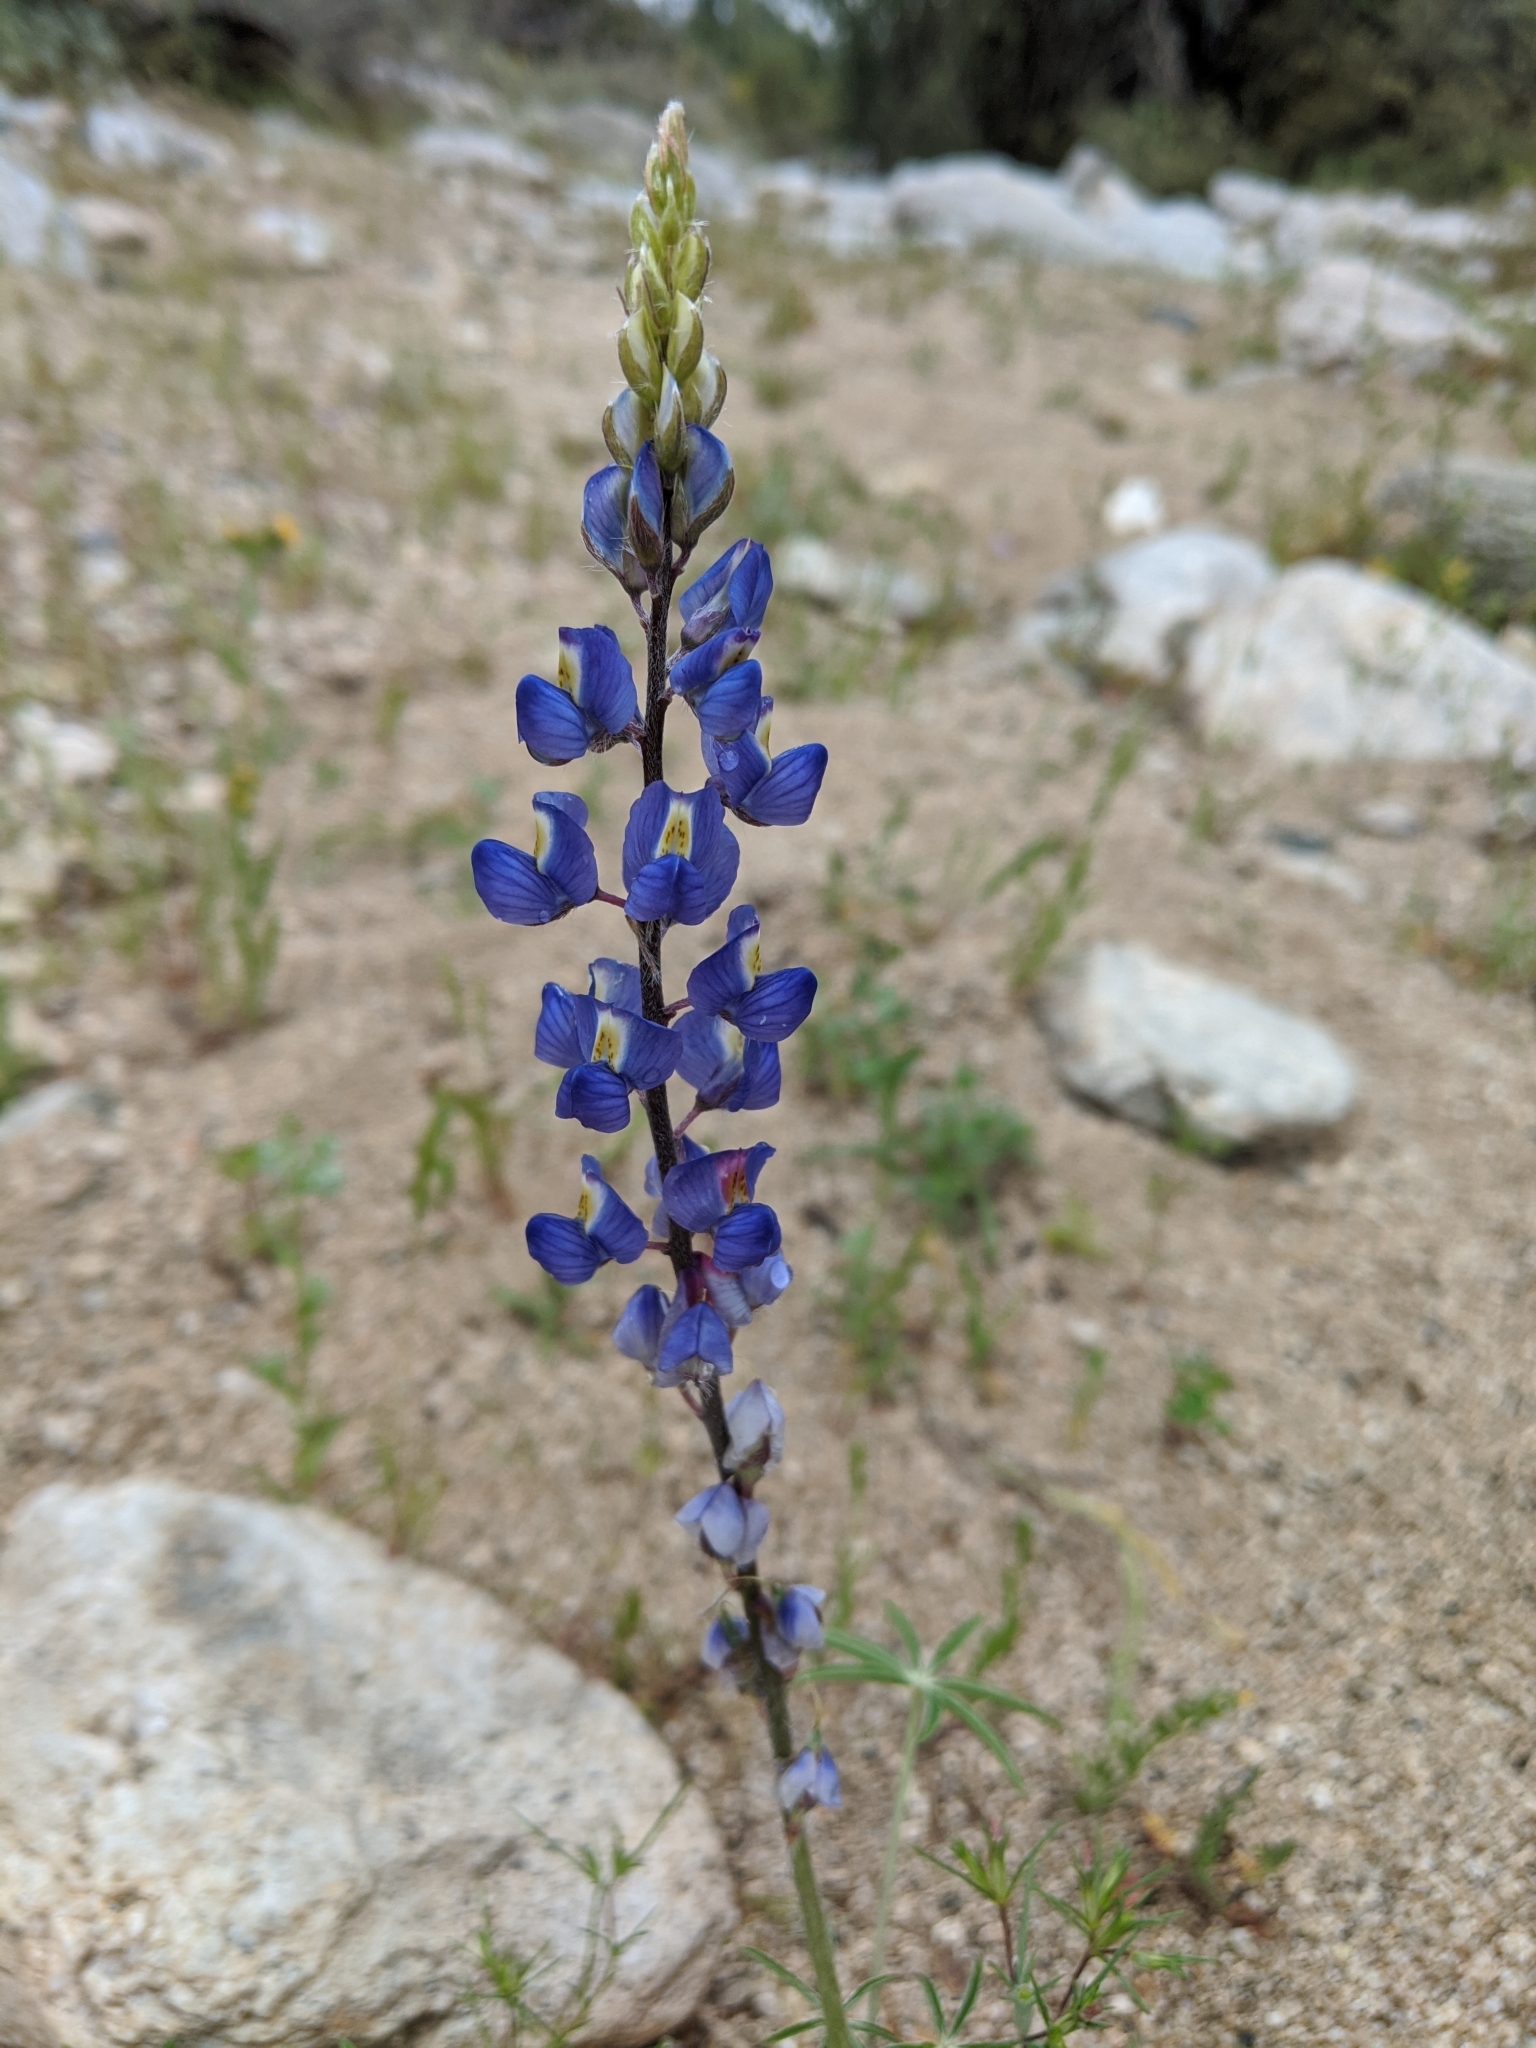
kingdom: Plantae
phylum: Tracheophyta
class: Magnoliopsida
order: Fabales
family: Fabaceae
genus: Lupinus
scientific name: Lupinus sparsiflorus
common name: Coulter's lupine
